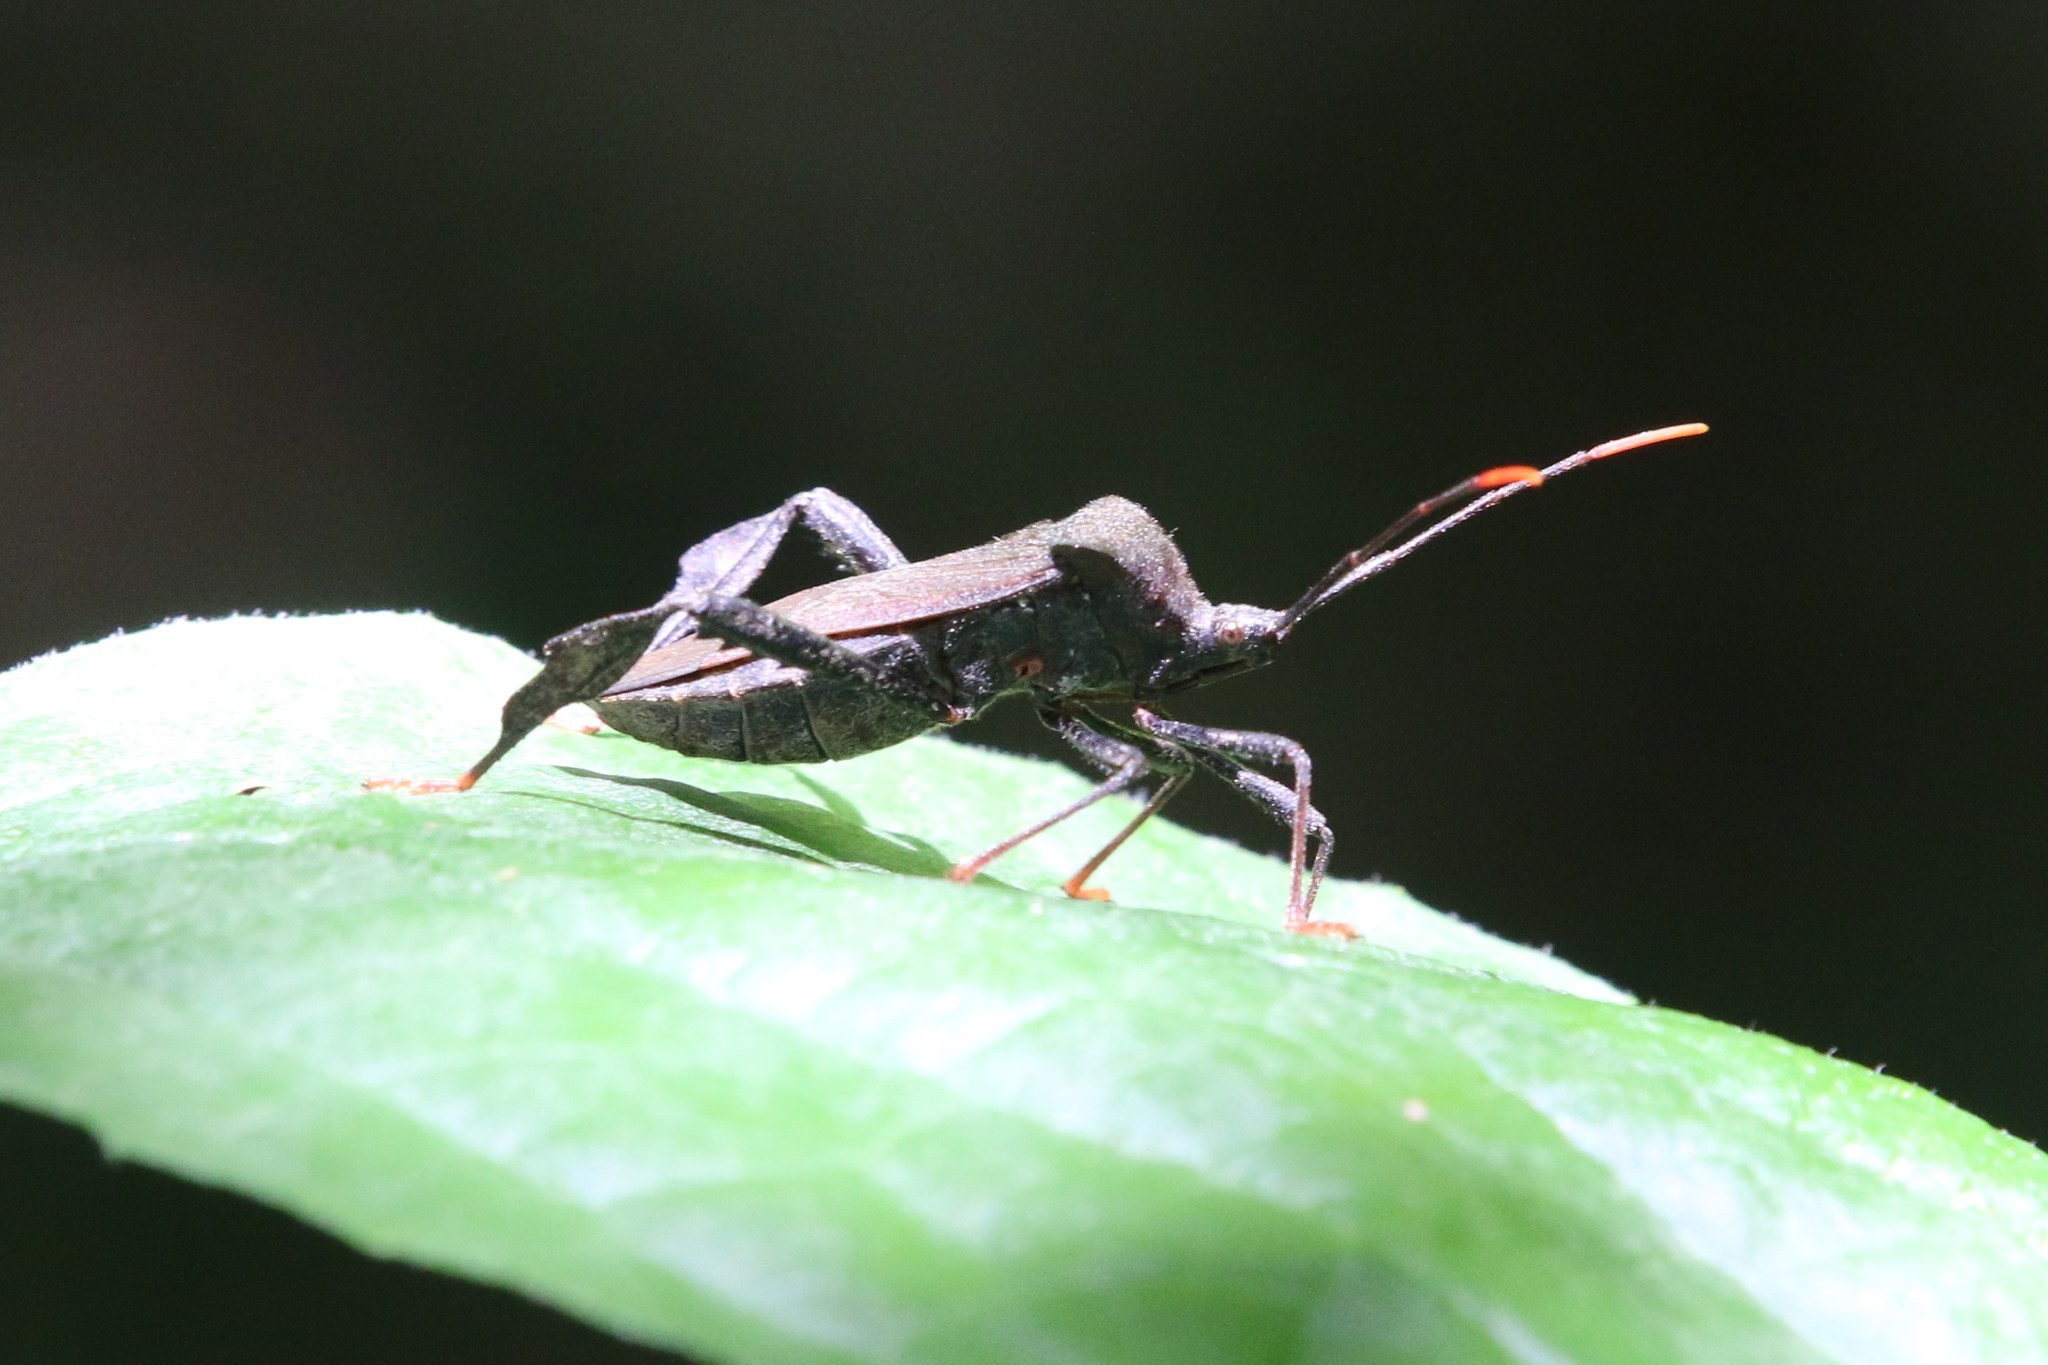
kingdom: Animalia
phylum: Arthropoda
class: Insecta
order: Hemiptera
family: Coreidae
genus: Acanthocephala
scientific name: Acanthocephala terminalis
